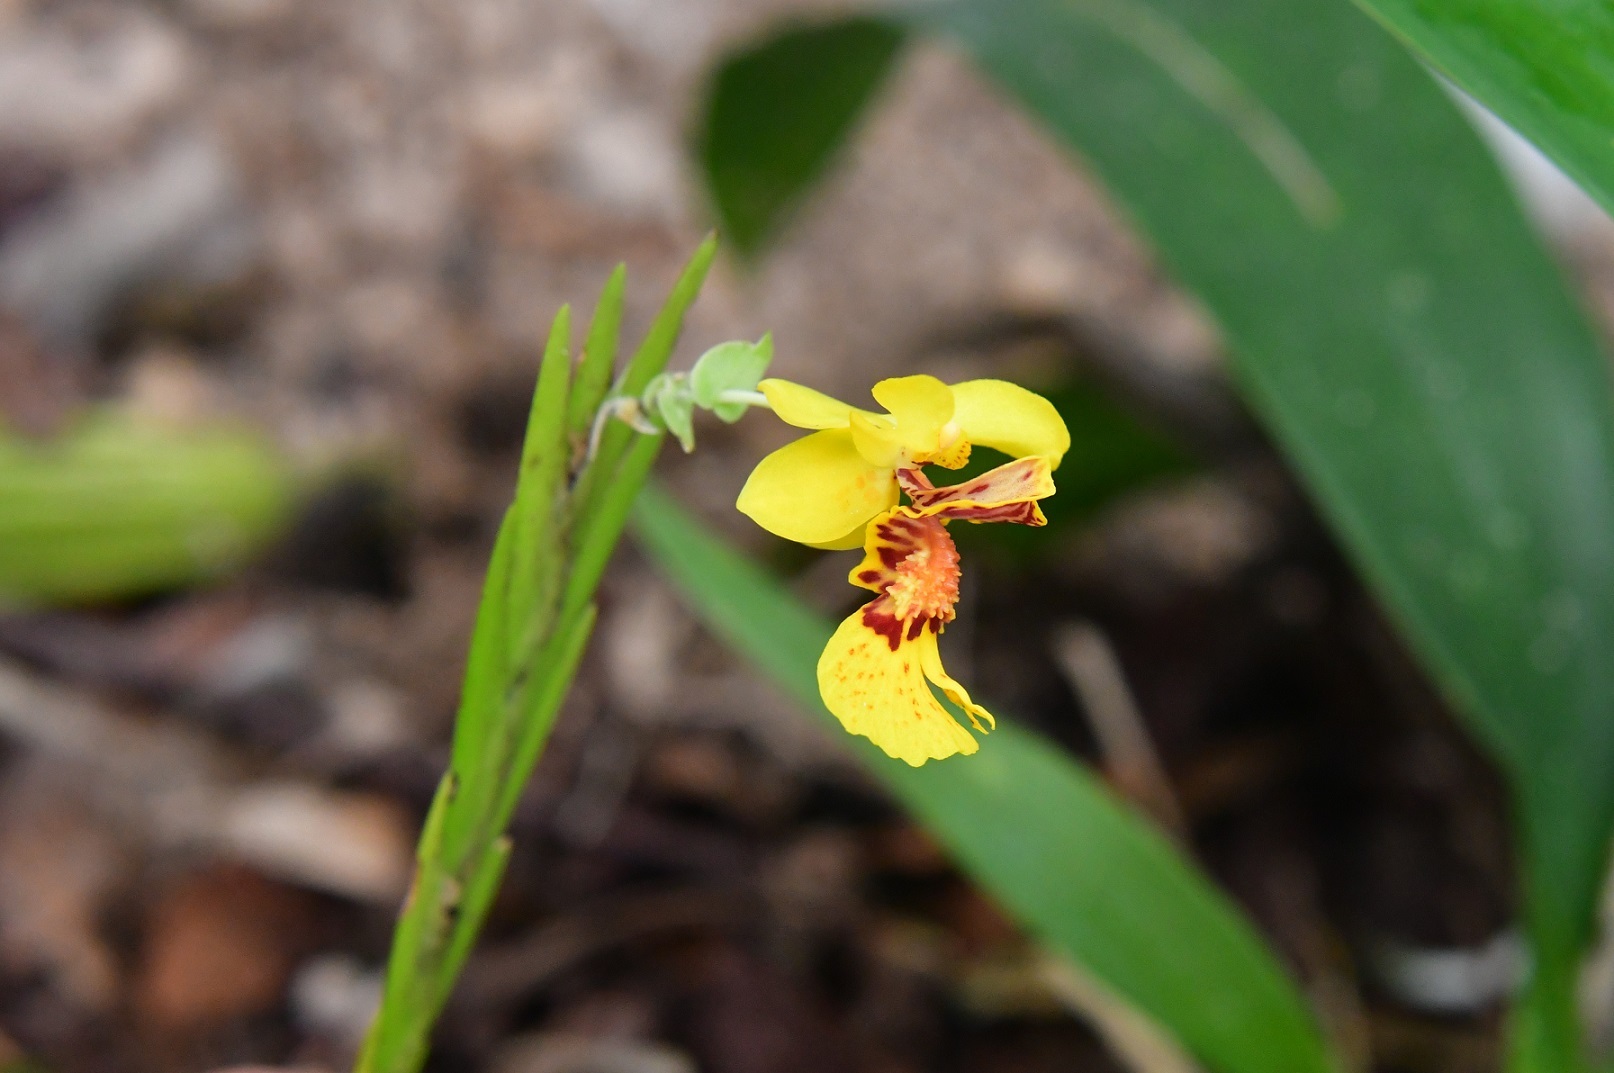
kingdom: Plantae
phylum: Tracheophyta
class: Liliopsida
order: Asparagales
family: Orchidaceae
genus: Lockhartia
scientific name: Lockhartia oerstedii
